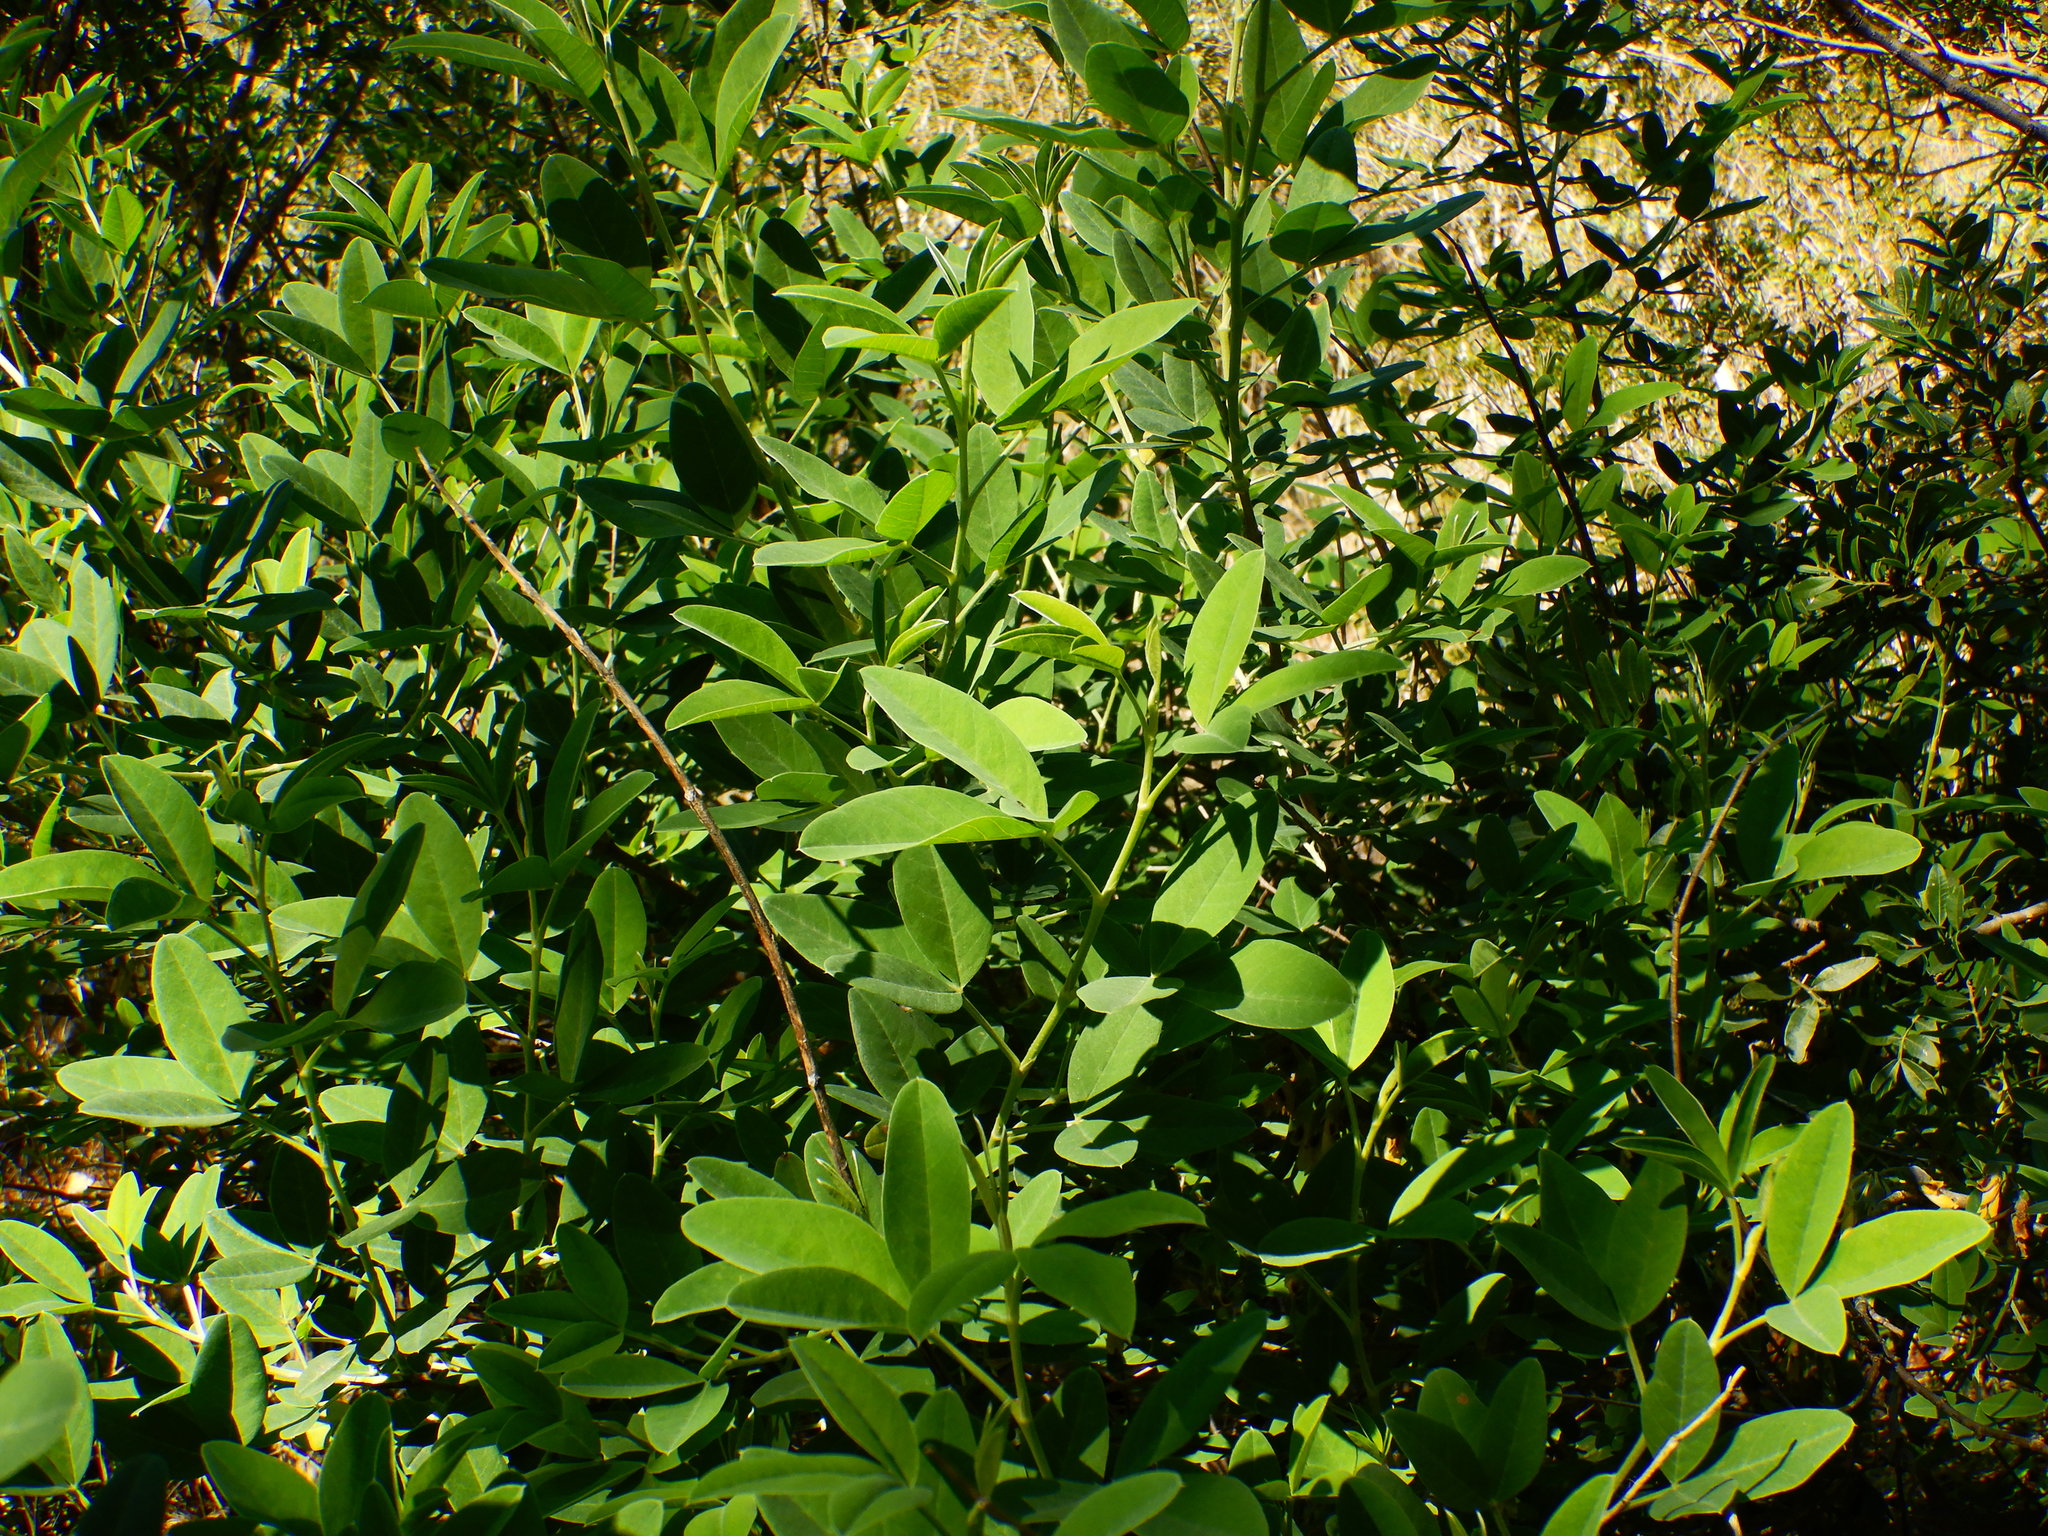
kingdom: Plantae
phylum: Tracheophyta
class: Magnoliopsida
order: Fabales
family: Fabaceae
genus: Anagyris
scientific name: Anagyris foetida
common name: Stinking bean trefoil
